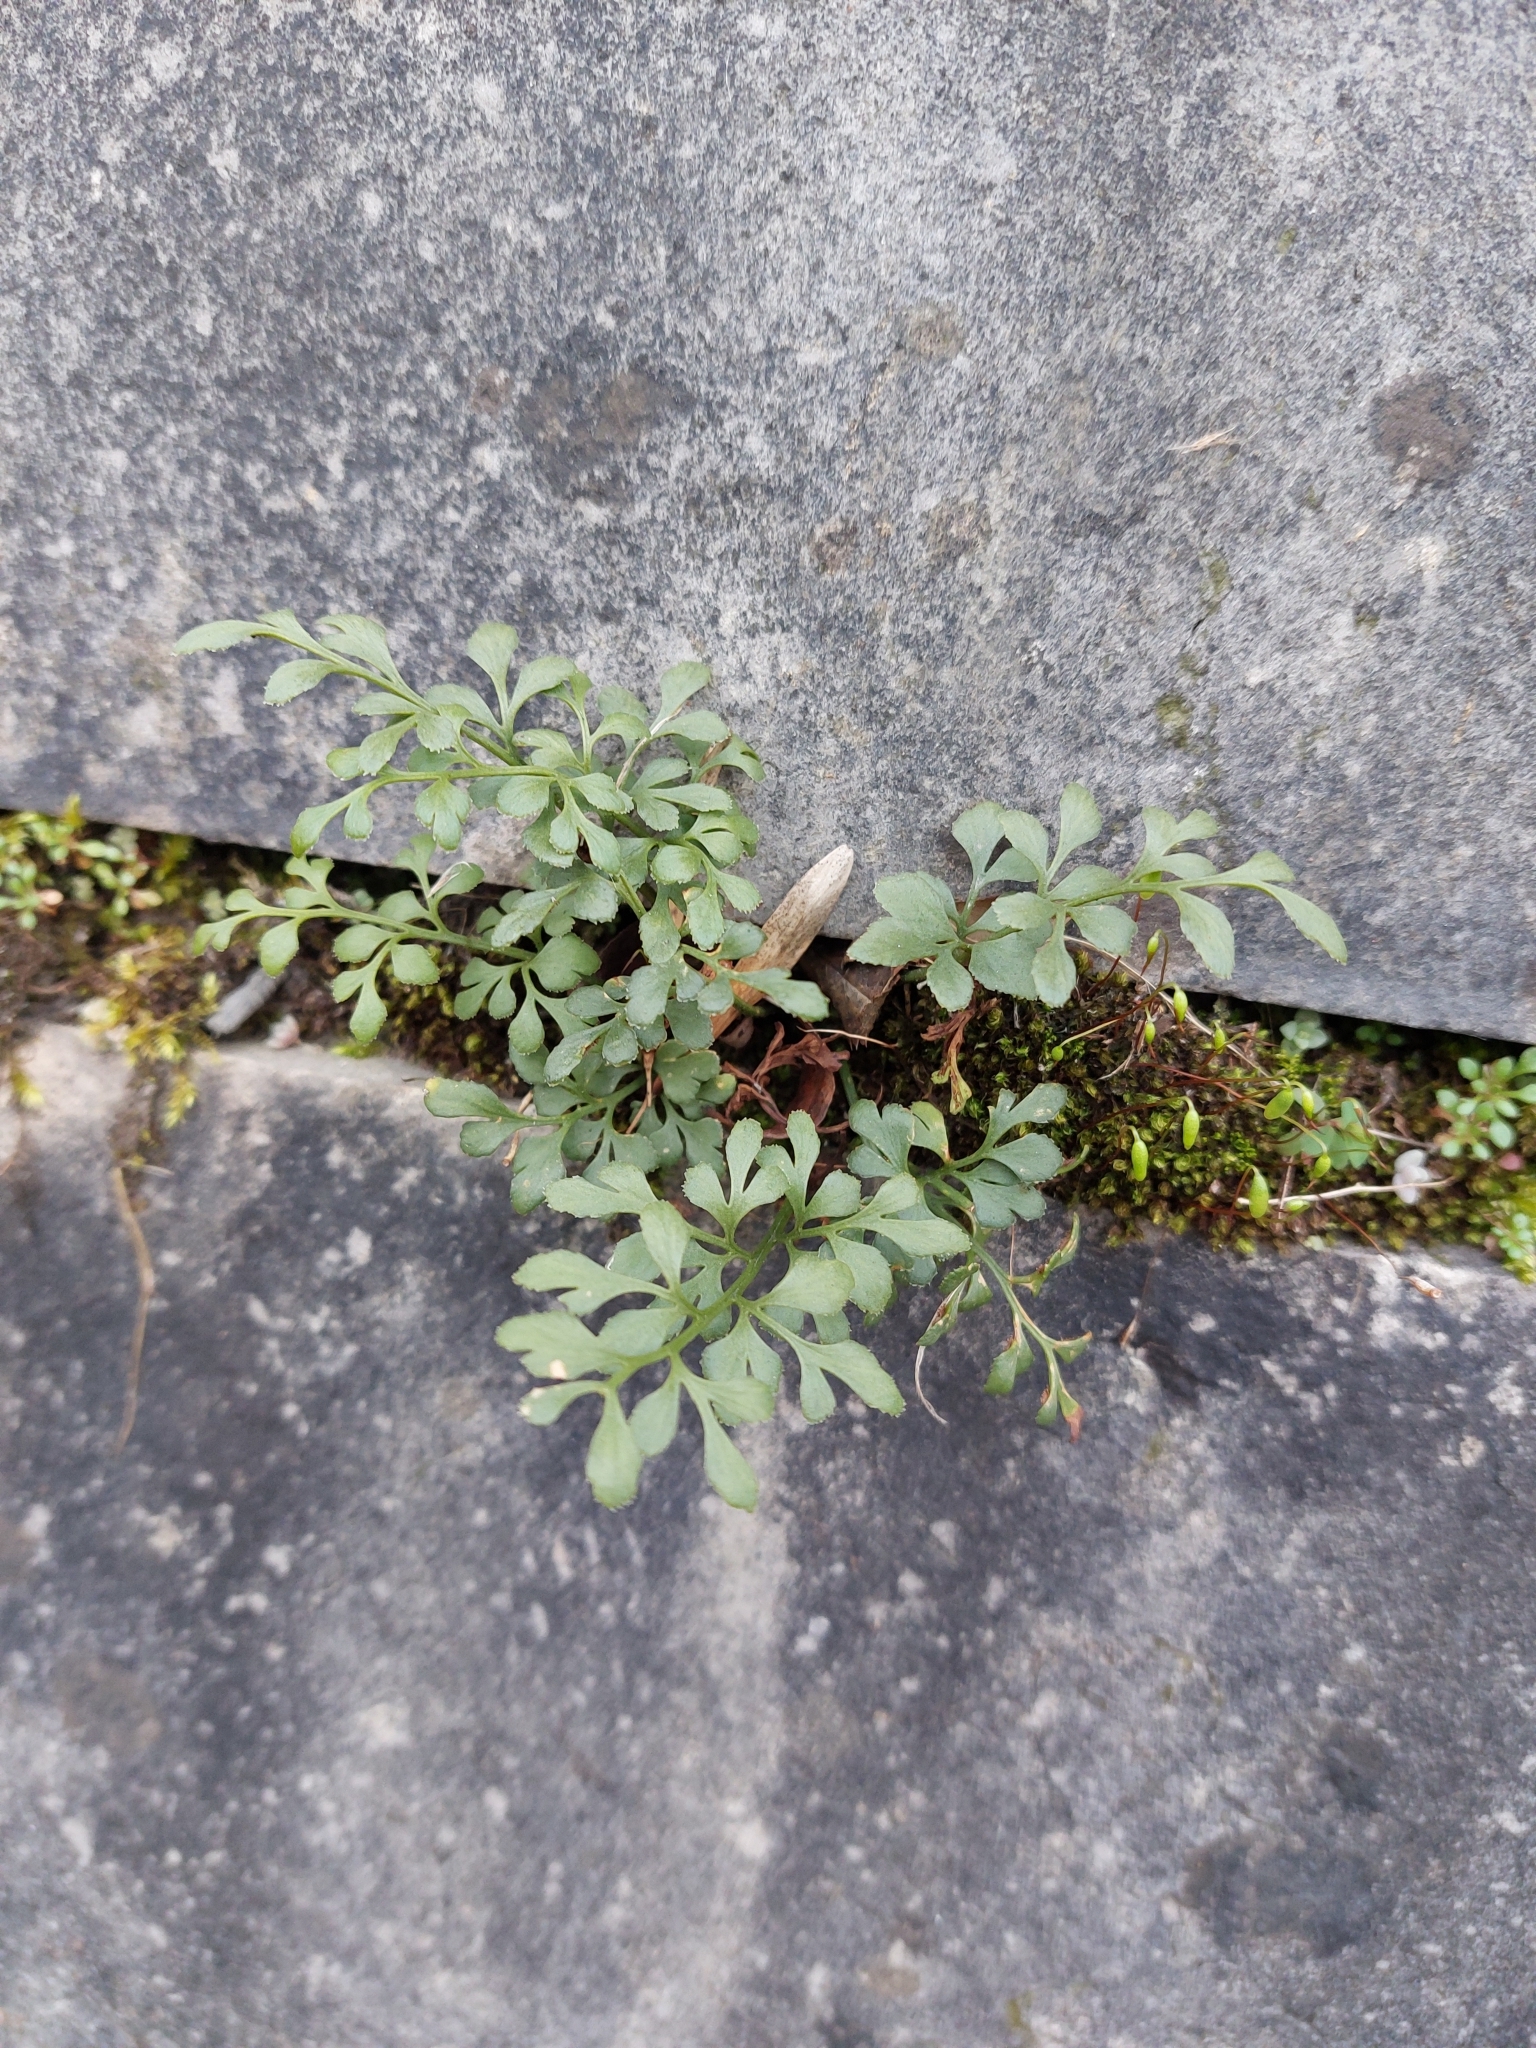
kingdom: Plantae
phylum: Tracheophyta
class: Polypodiopsida
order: Polypodiales
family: Aspleniaceae
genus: Asplenium
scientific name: Asplenium ruta-muraria
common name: Wall-rue
